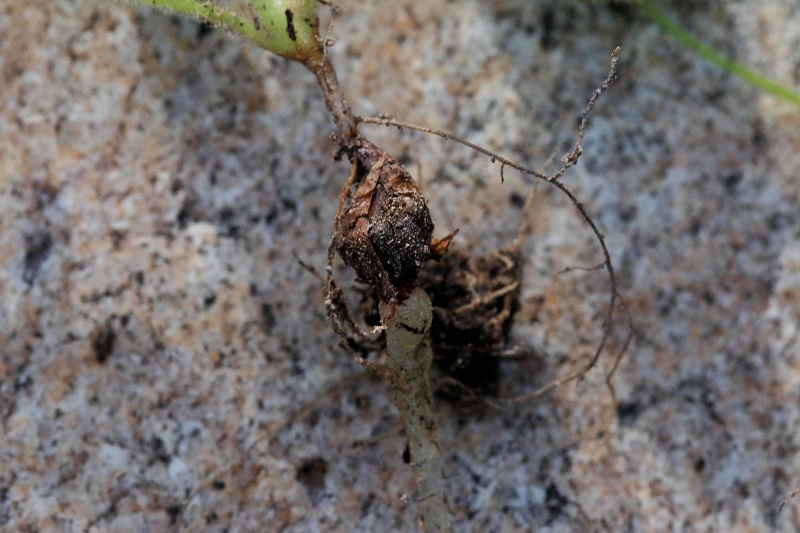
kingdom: Plantae
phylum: Tracheophyta
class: Magnoliopsida
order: Oxalidales
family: Oxalidaceae
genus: Oxalis
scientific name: Oxalis imbricata
